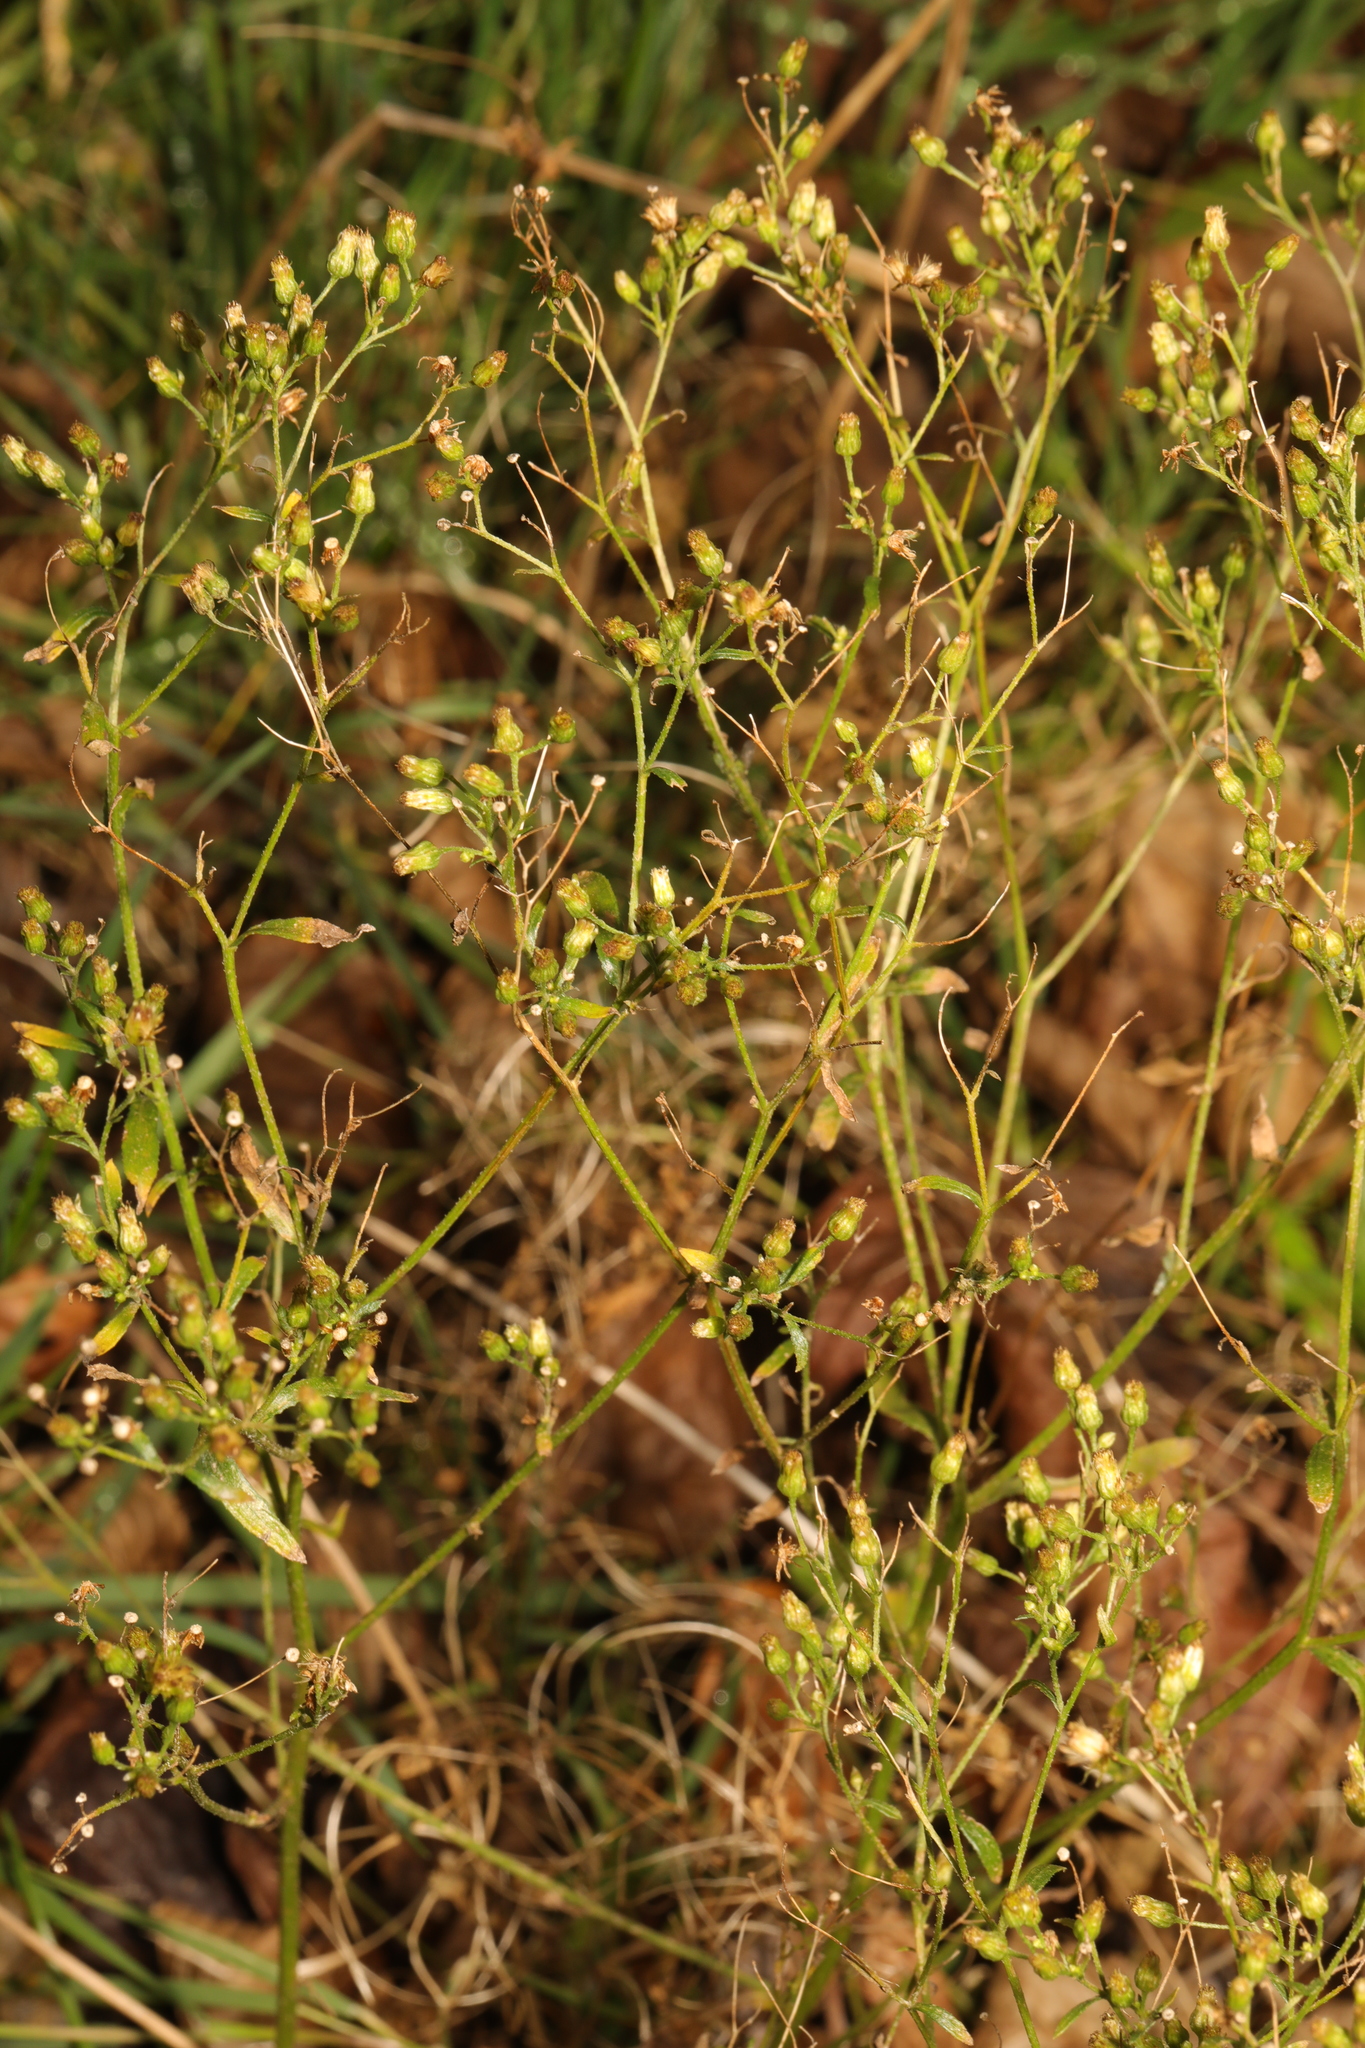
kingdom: Plantae
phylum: Tracheophyta
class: Magnoliopsida
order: Asterales
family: Asteraceae
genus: Erigeron
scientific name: Erigeron canadensis
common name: Canadian fleabane
